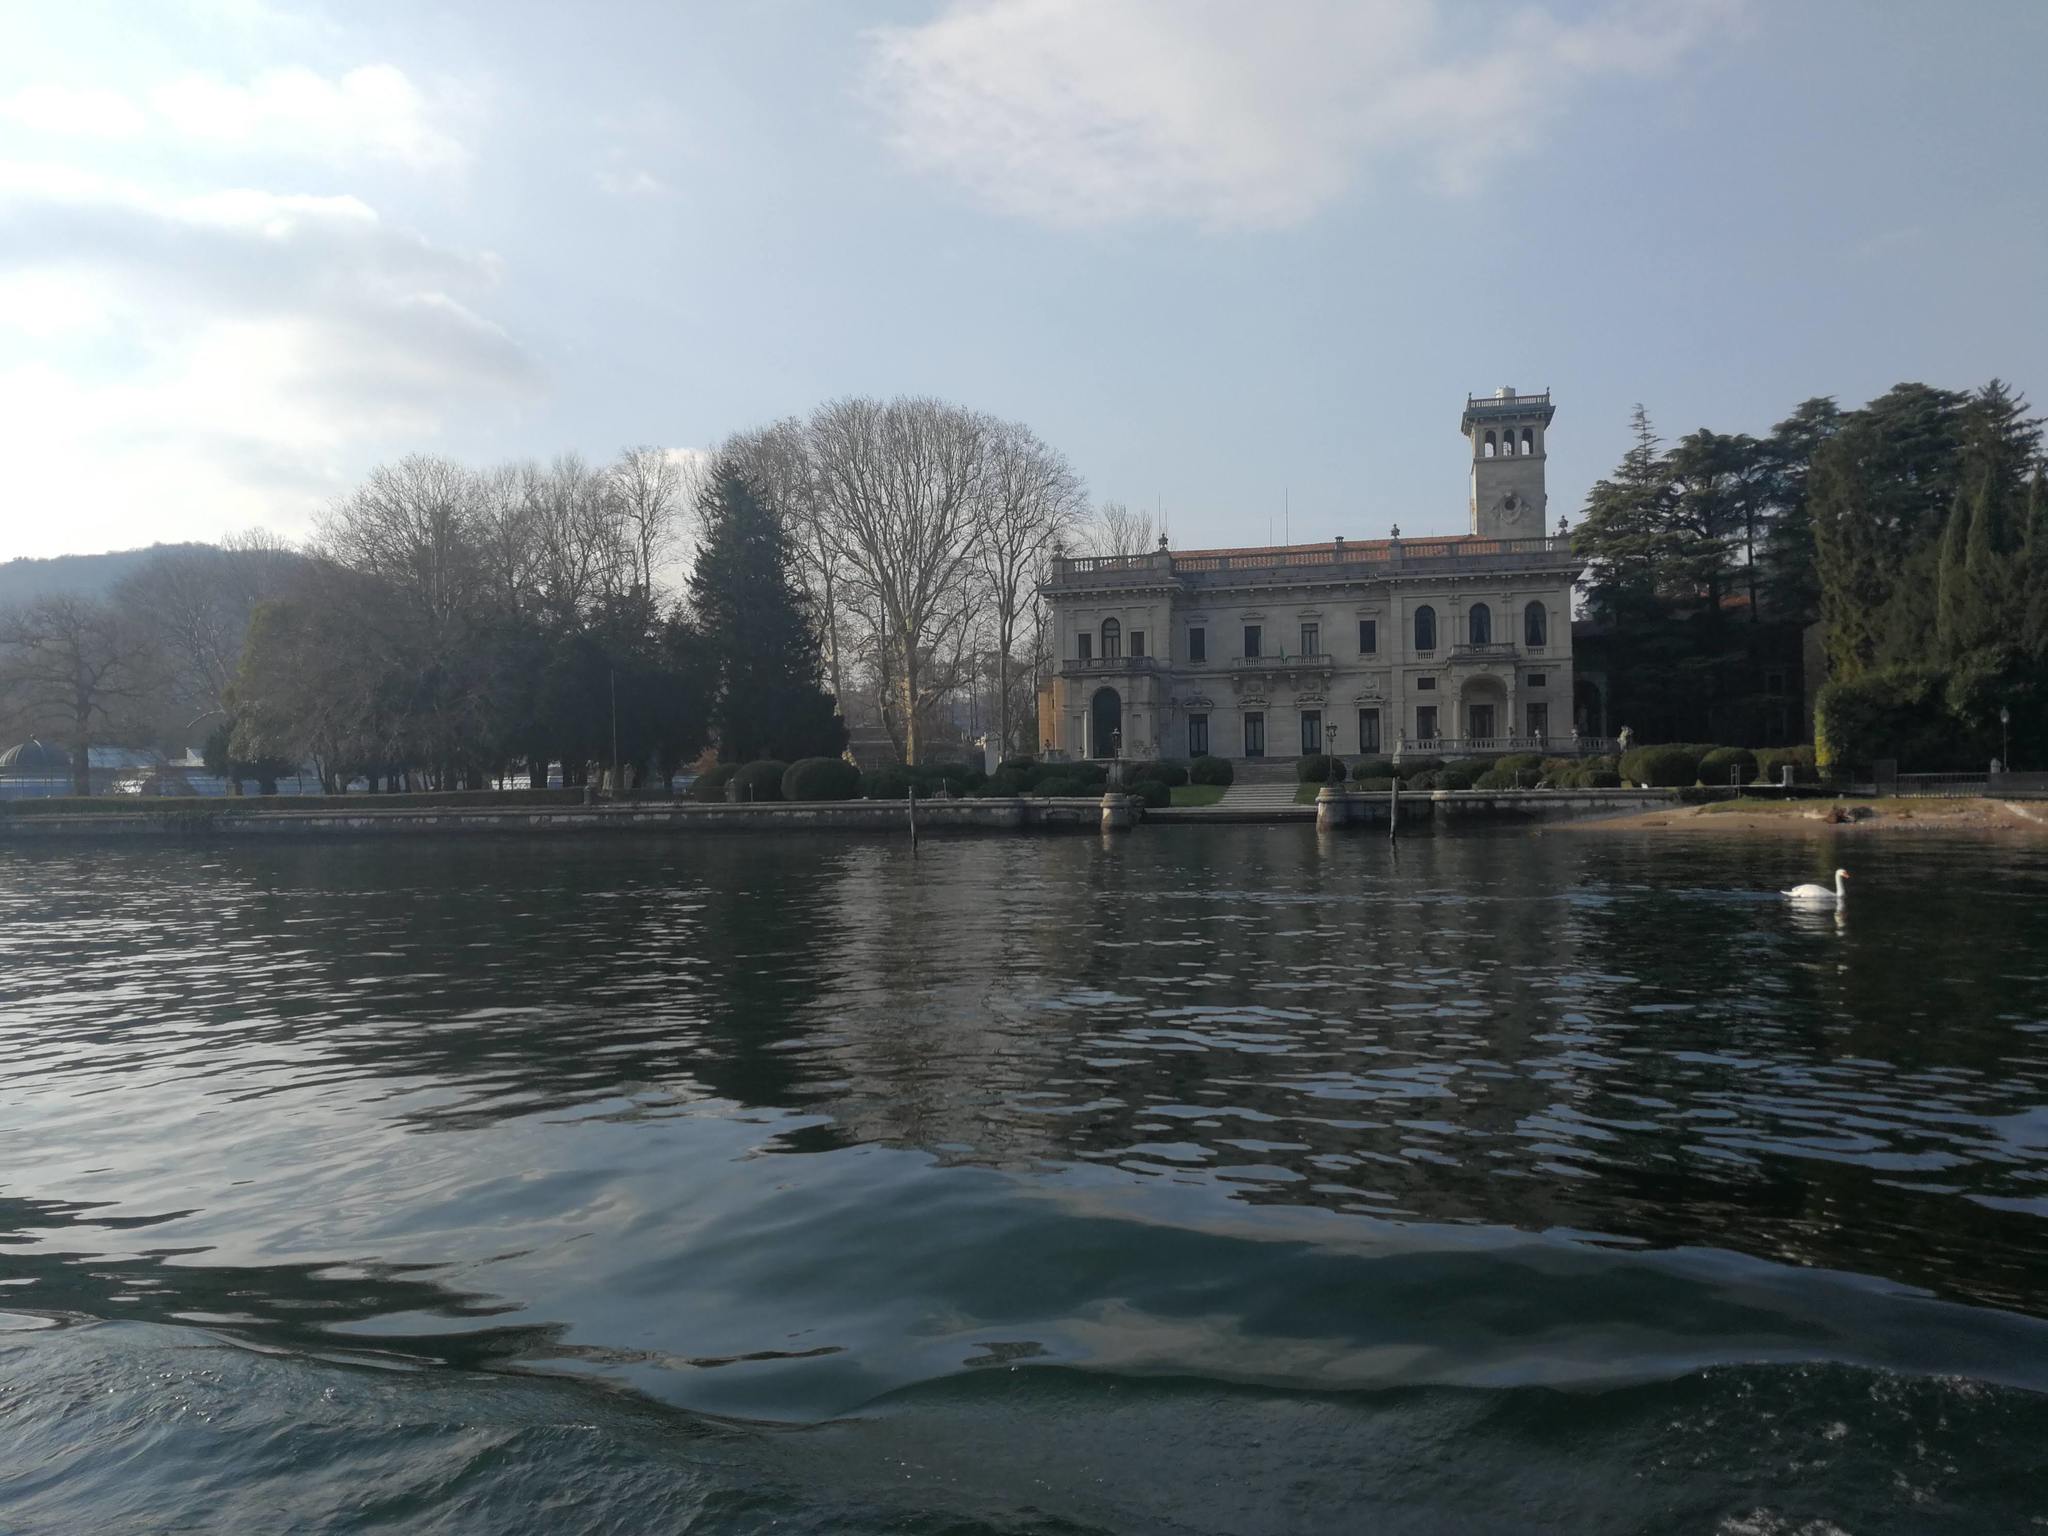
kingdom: Animalia
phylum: Chordata
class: Aves
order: Anseriformes
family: Anatidae
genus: Cygnus
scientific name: Cygnus olor
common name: Mute swan
